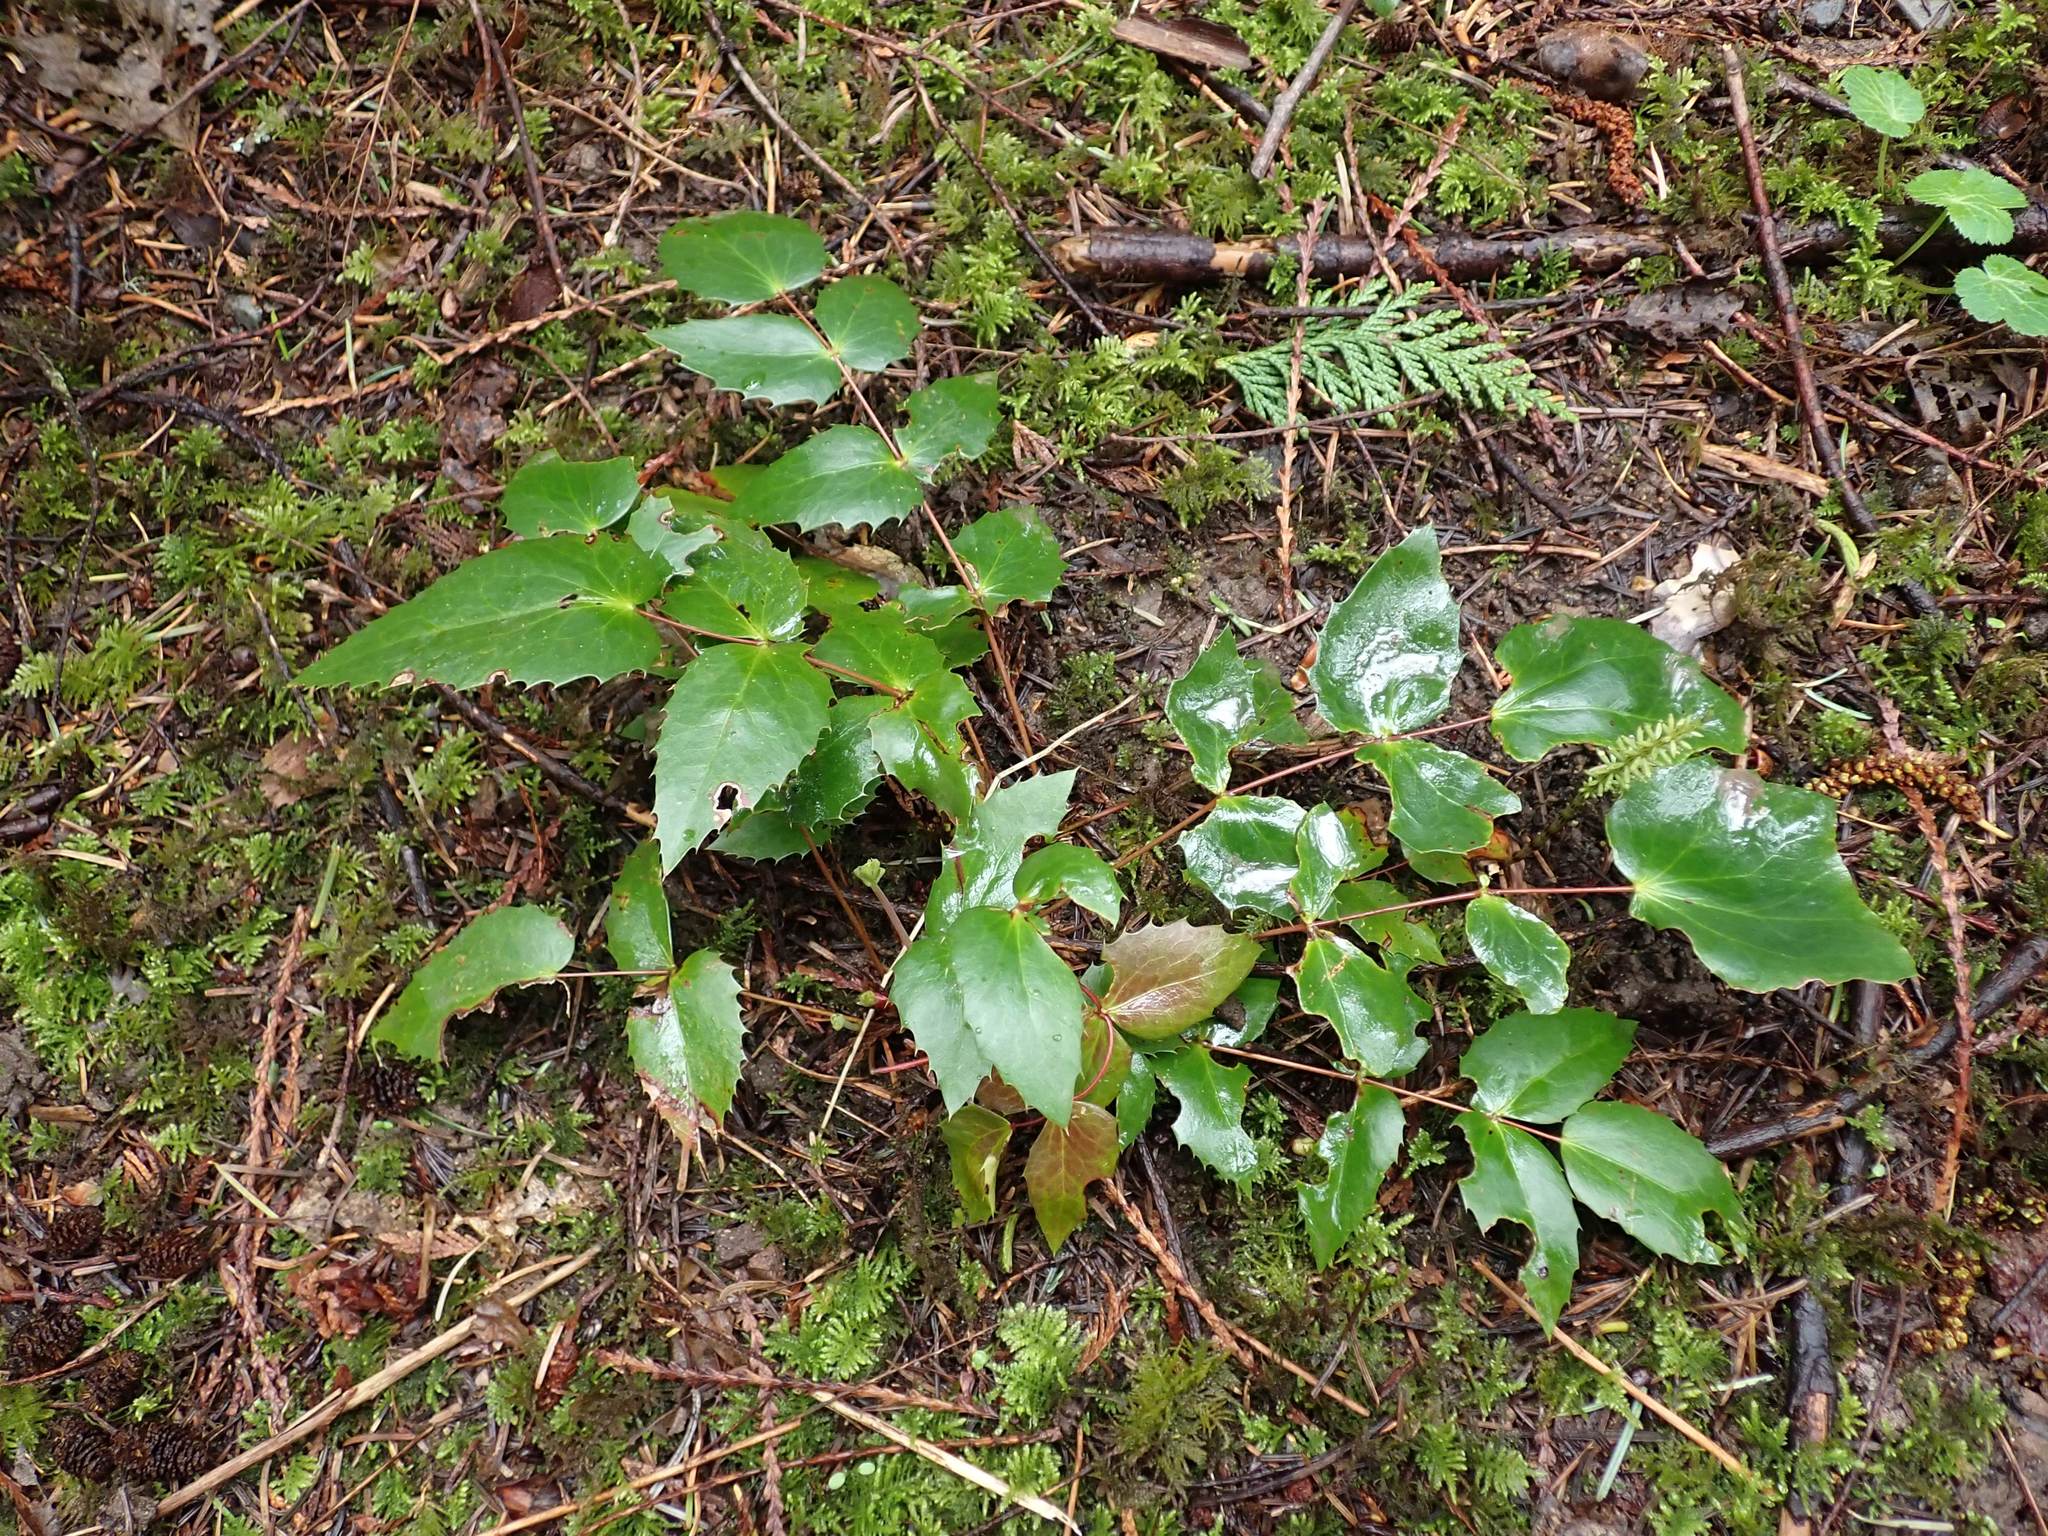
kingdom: Plantae
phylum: Tracheophyta
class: Magnoliopsida
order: Ranunculales
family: Berberidaceae
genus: Mahonia
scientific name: Mahonia nervosa
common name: Cascade oregon-grape
